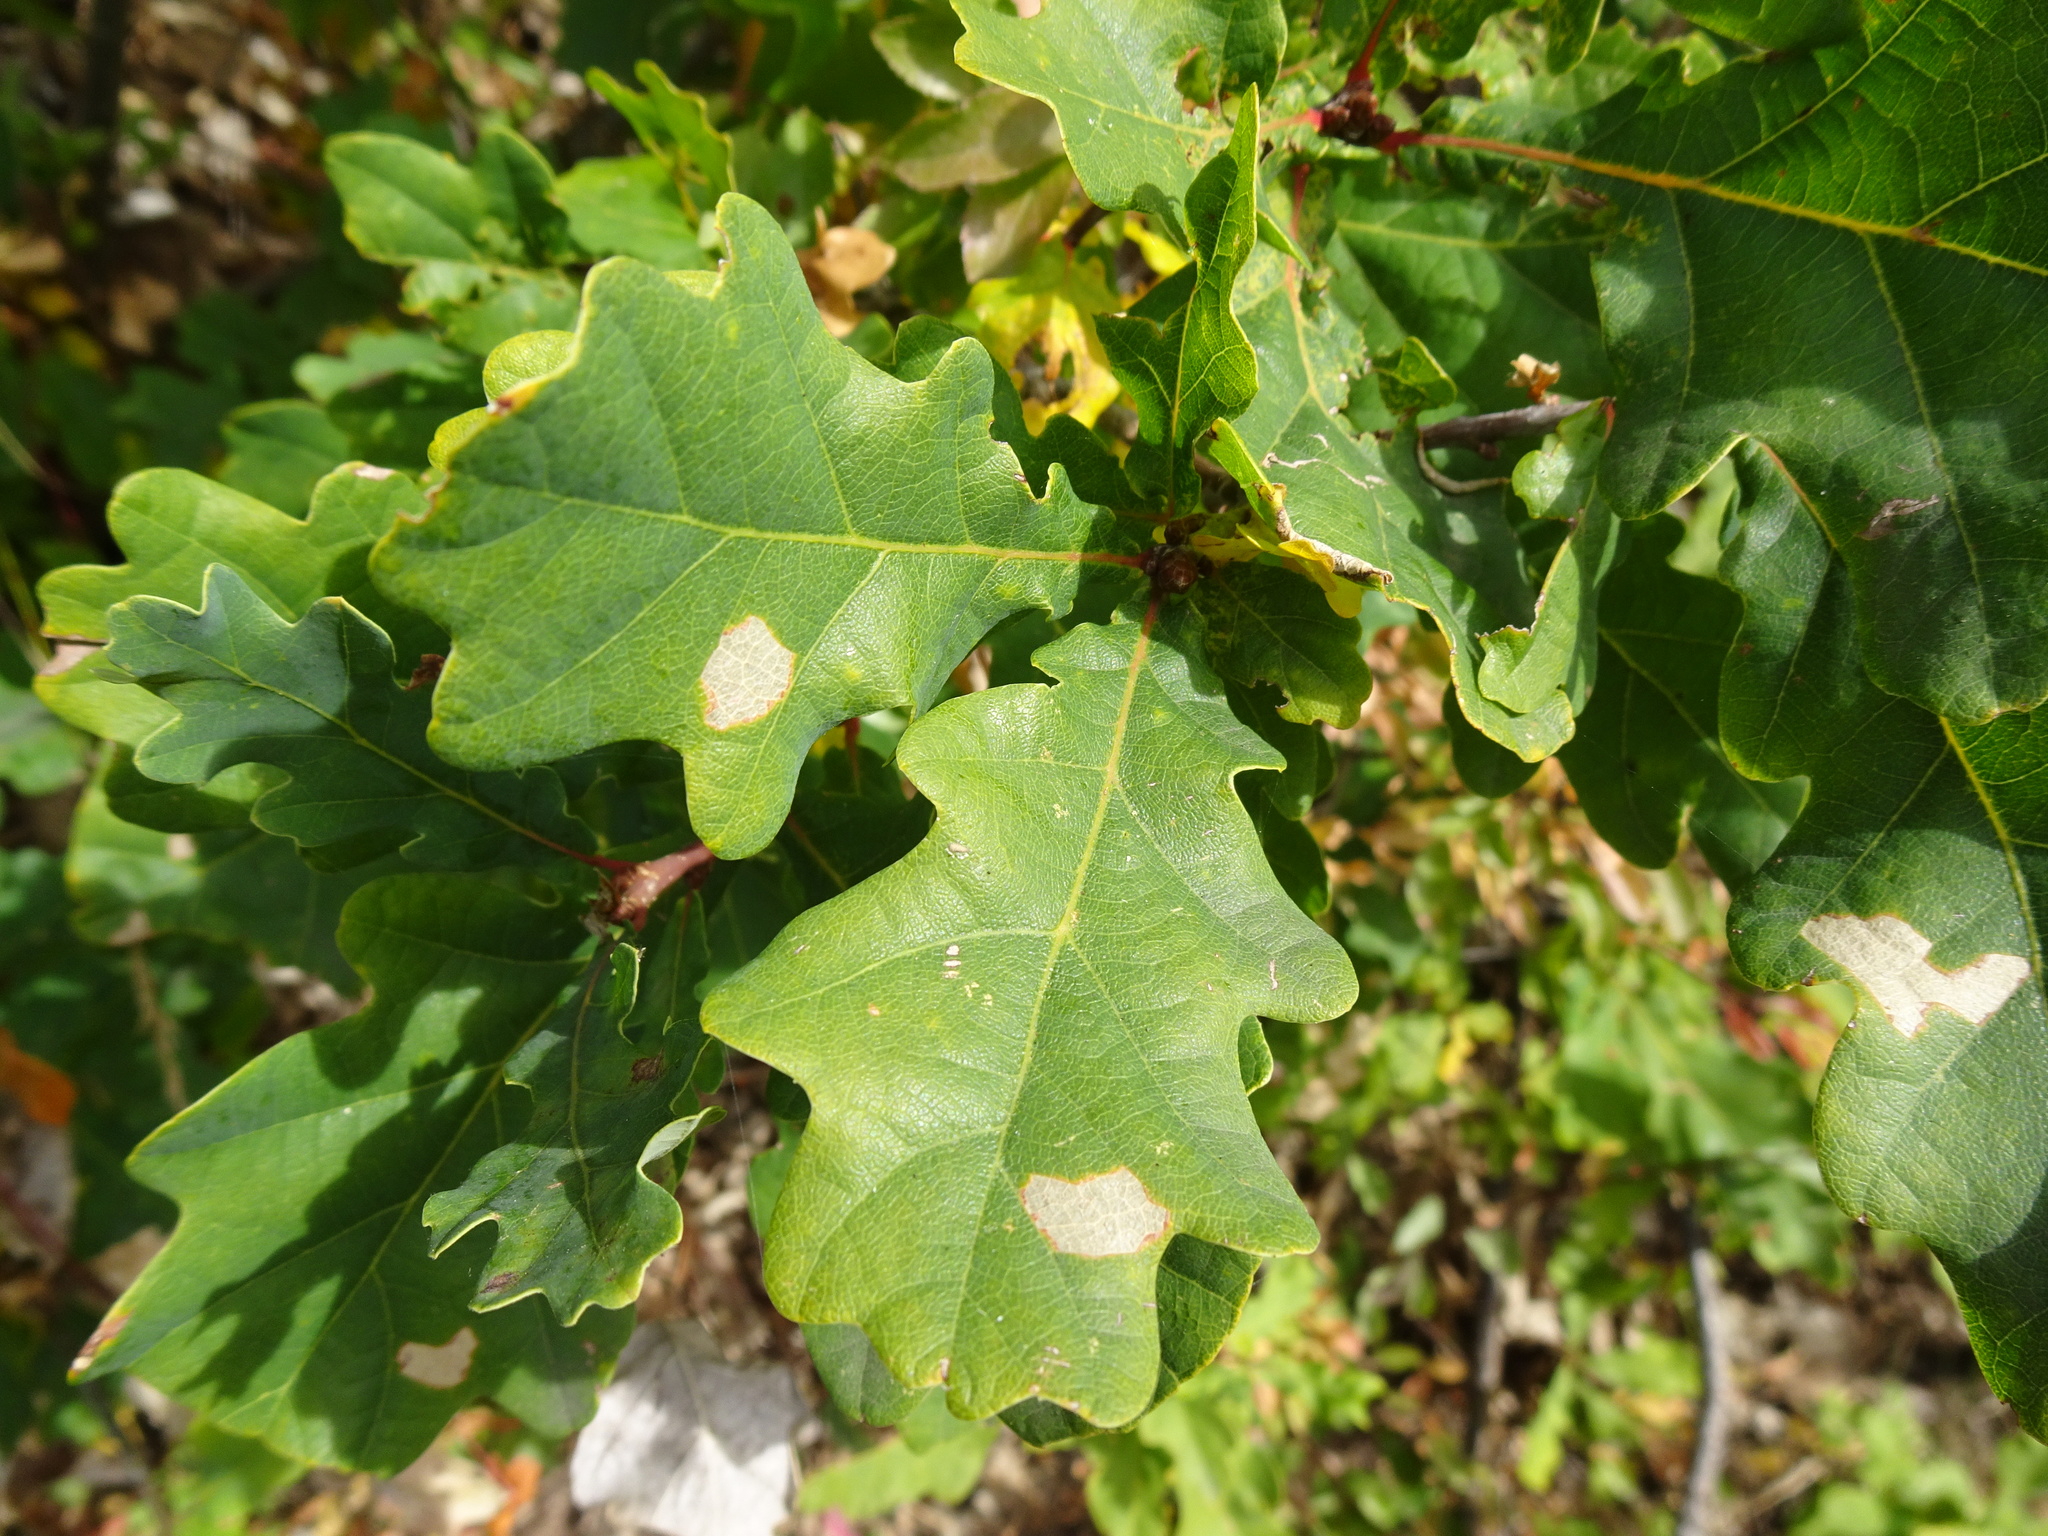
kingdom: Plantae
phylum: Tracheophyta
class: Magnoliopsida
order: Fagales
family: Fagaceae
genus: Quercus
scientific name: Quercus robur
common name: Pedunculate oak
